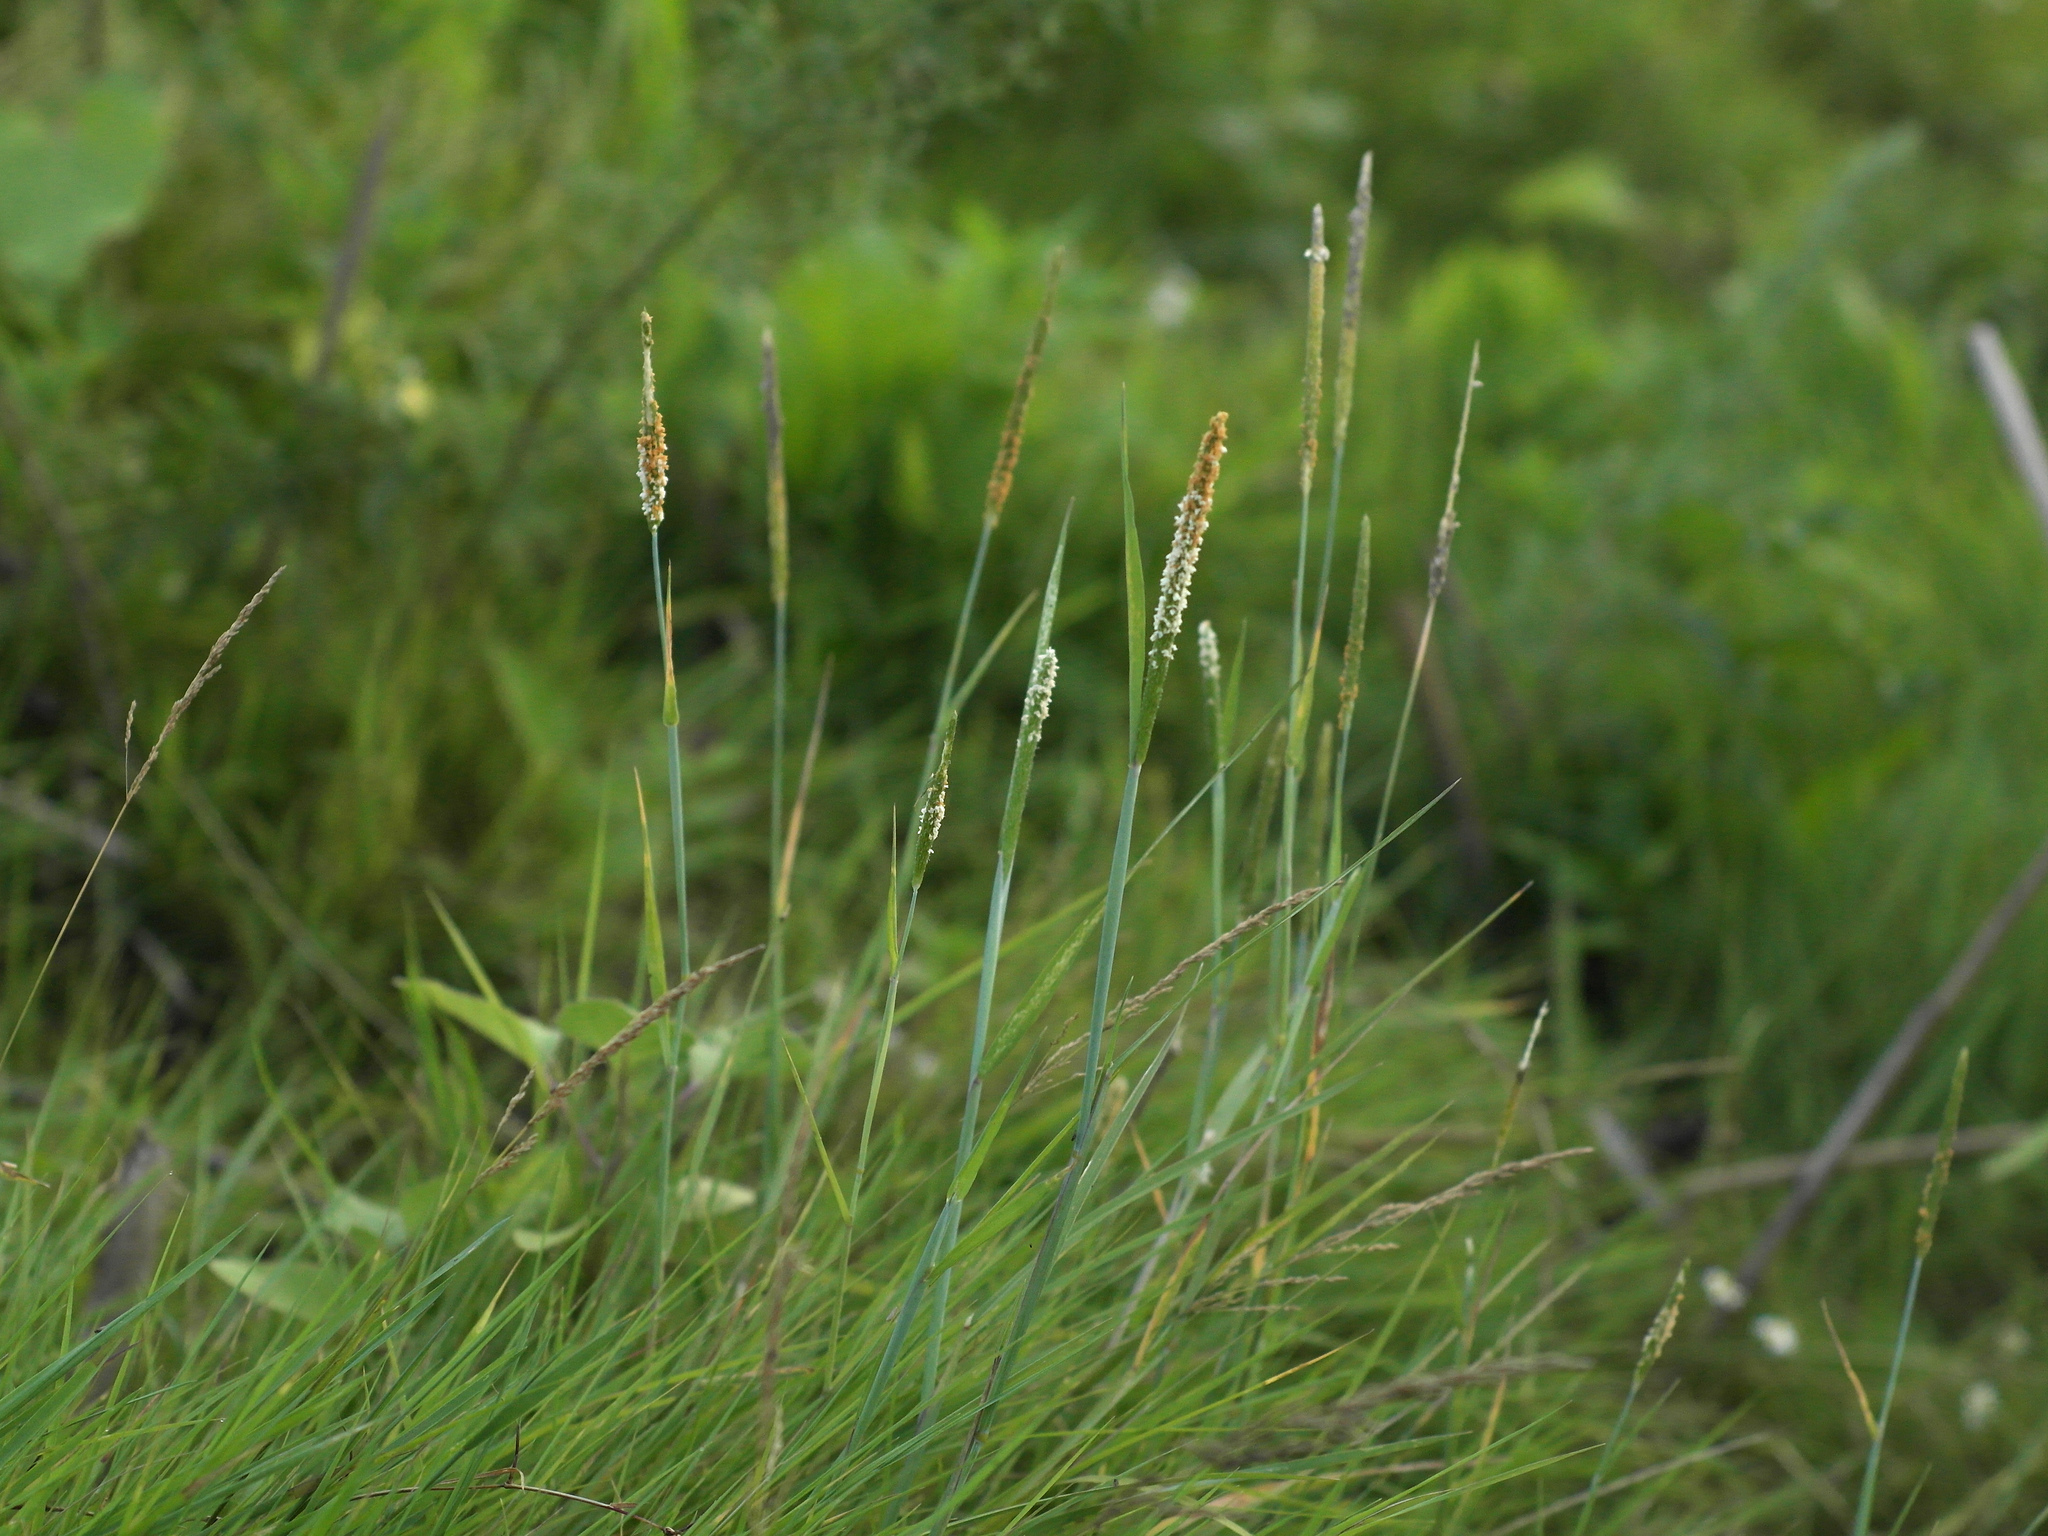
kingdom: Plantae
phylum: Tracheophyta
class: Liliopsida
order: Poales
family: Poaceae
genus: Alopecurus
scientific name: Alopecurus aequalis
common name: Orange foxtail
